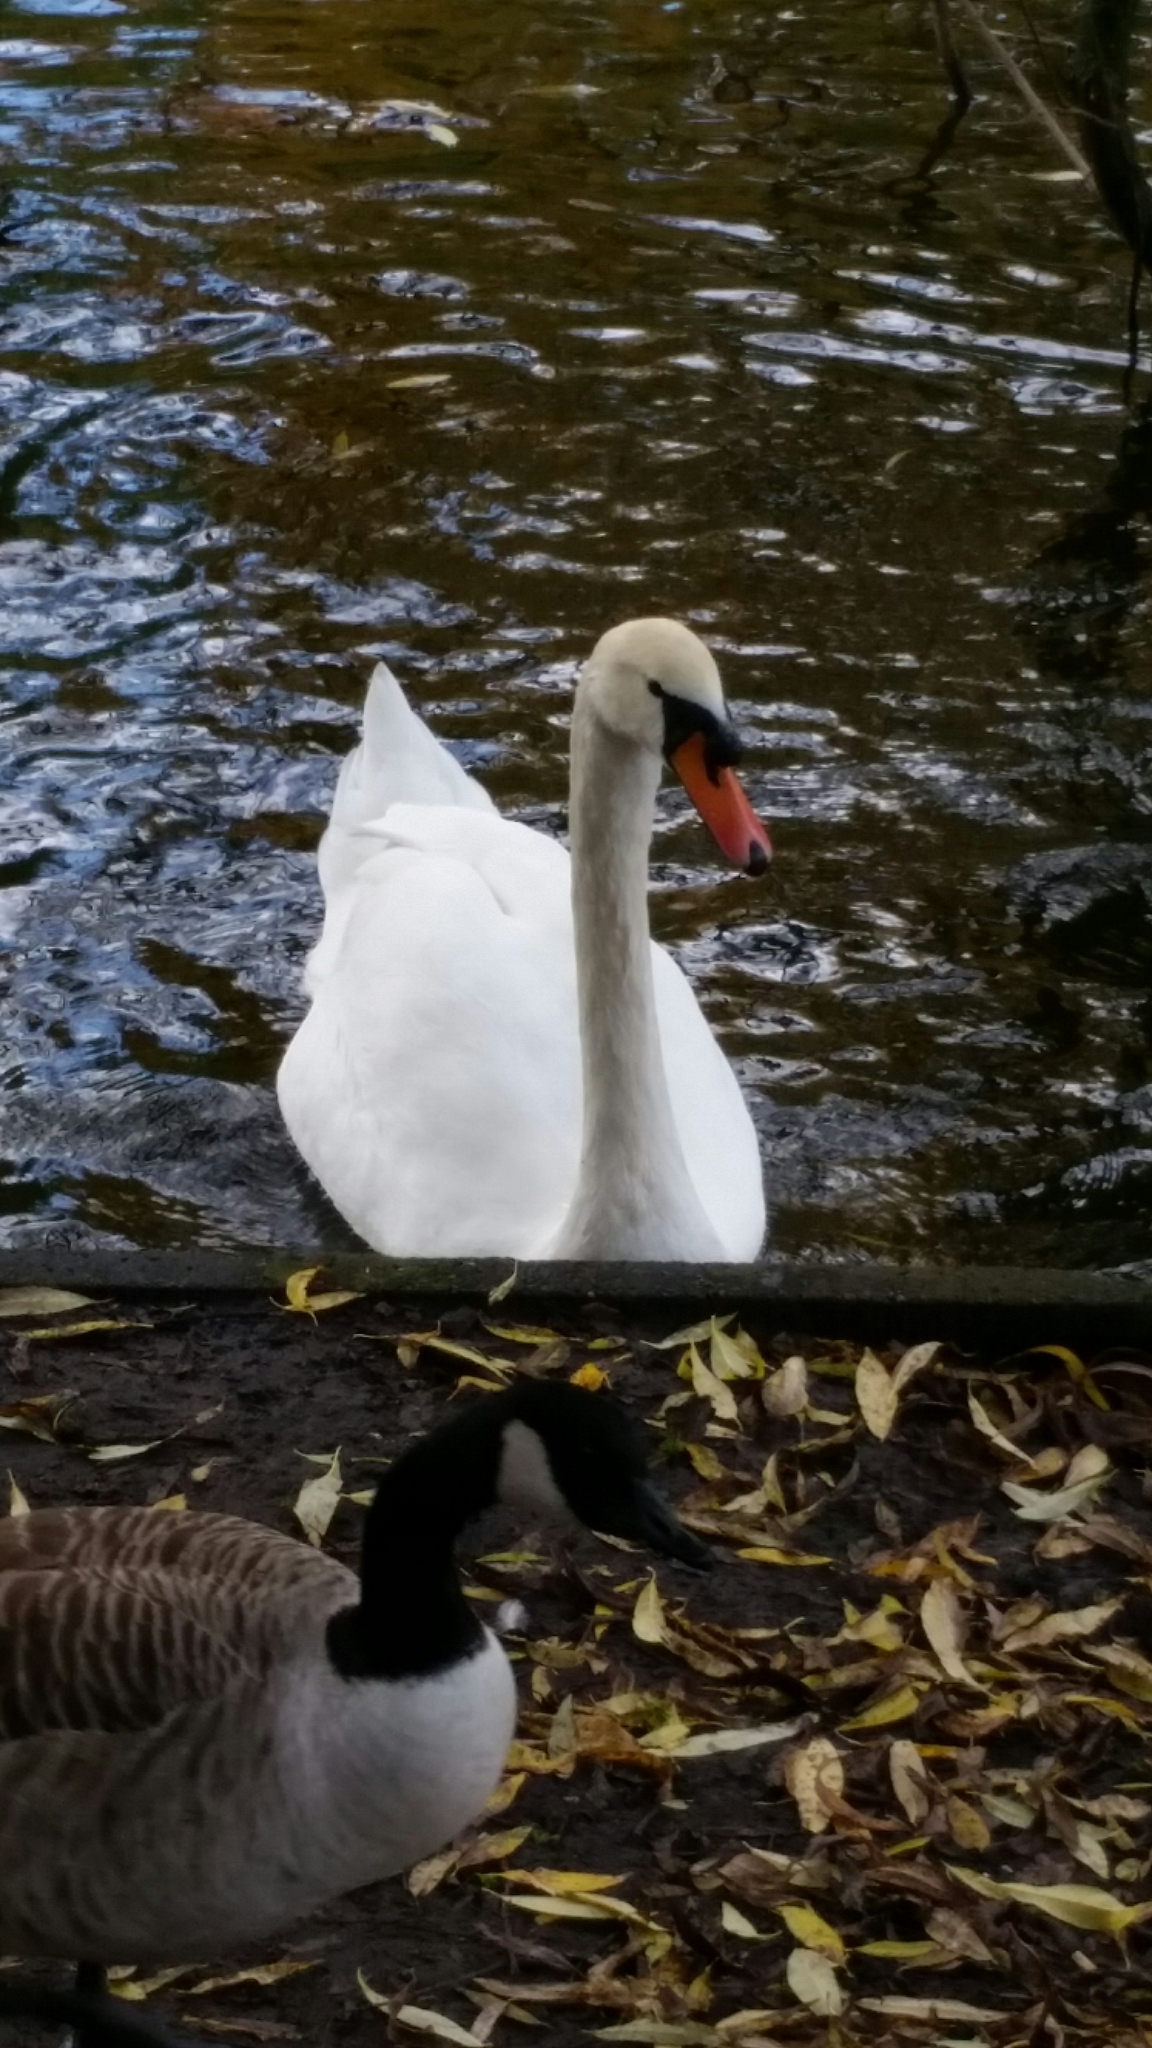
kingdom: Animalia
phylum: Chordata
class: Aves
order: Anseriformes
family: Anatidae
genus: Cygnus
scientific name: Cygnus olor
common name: Mute swan
